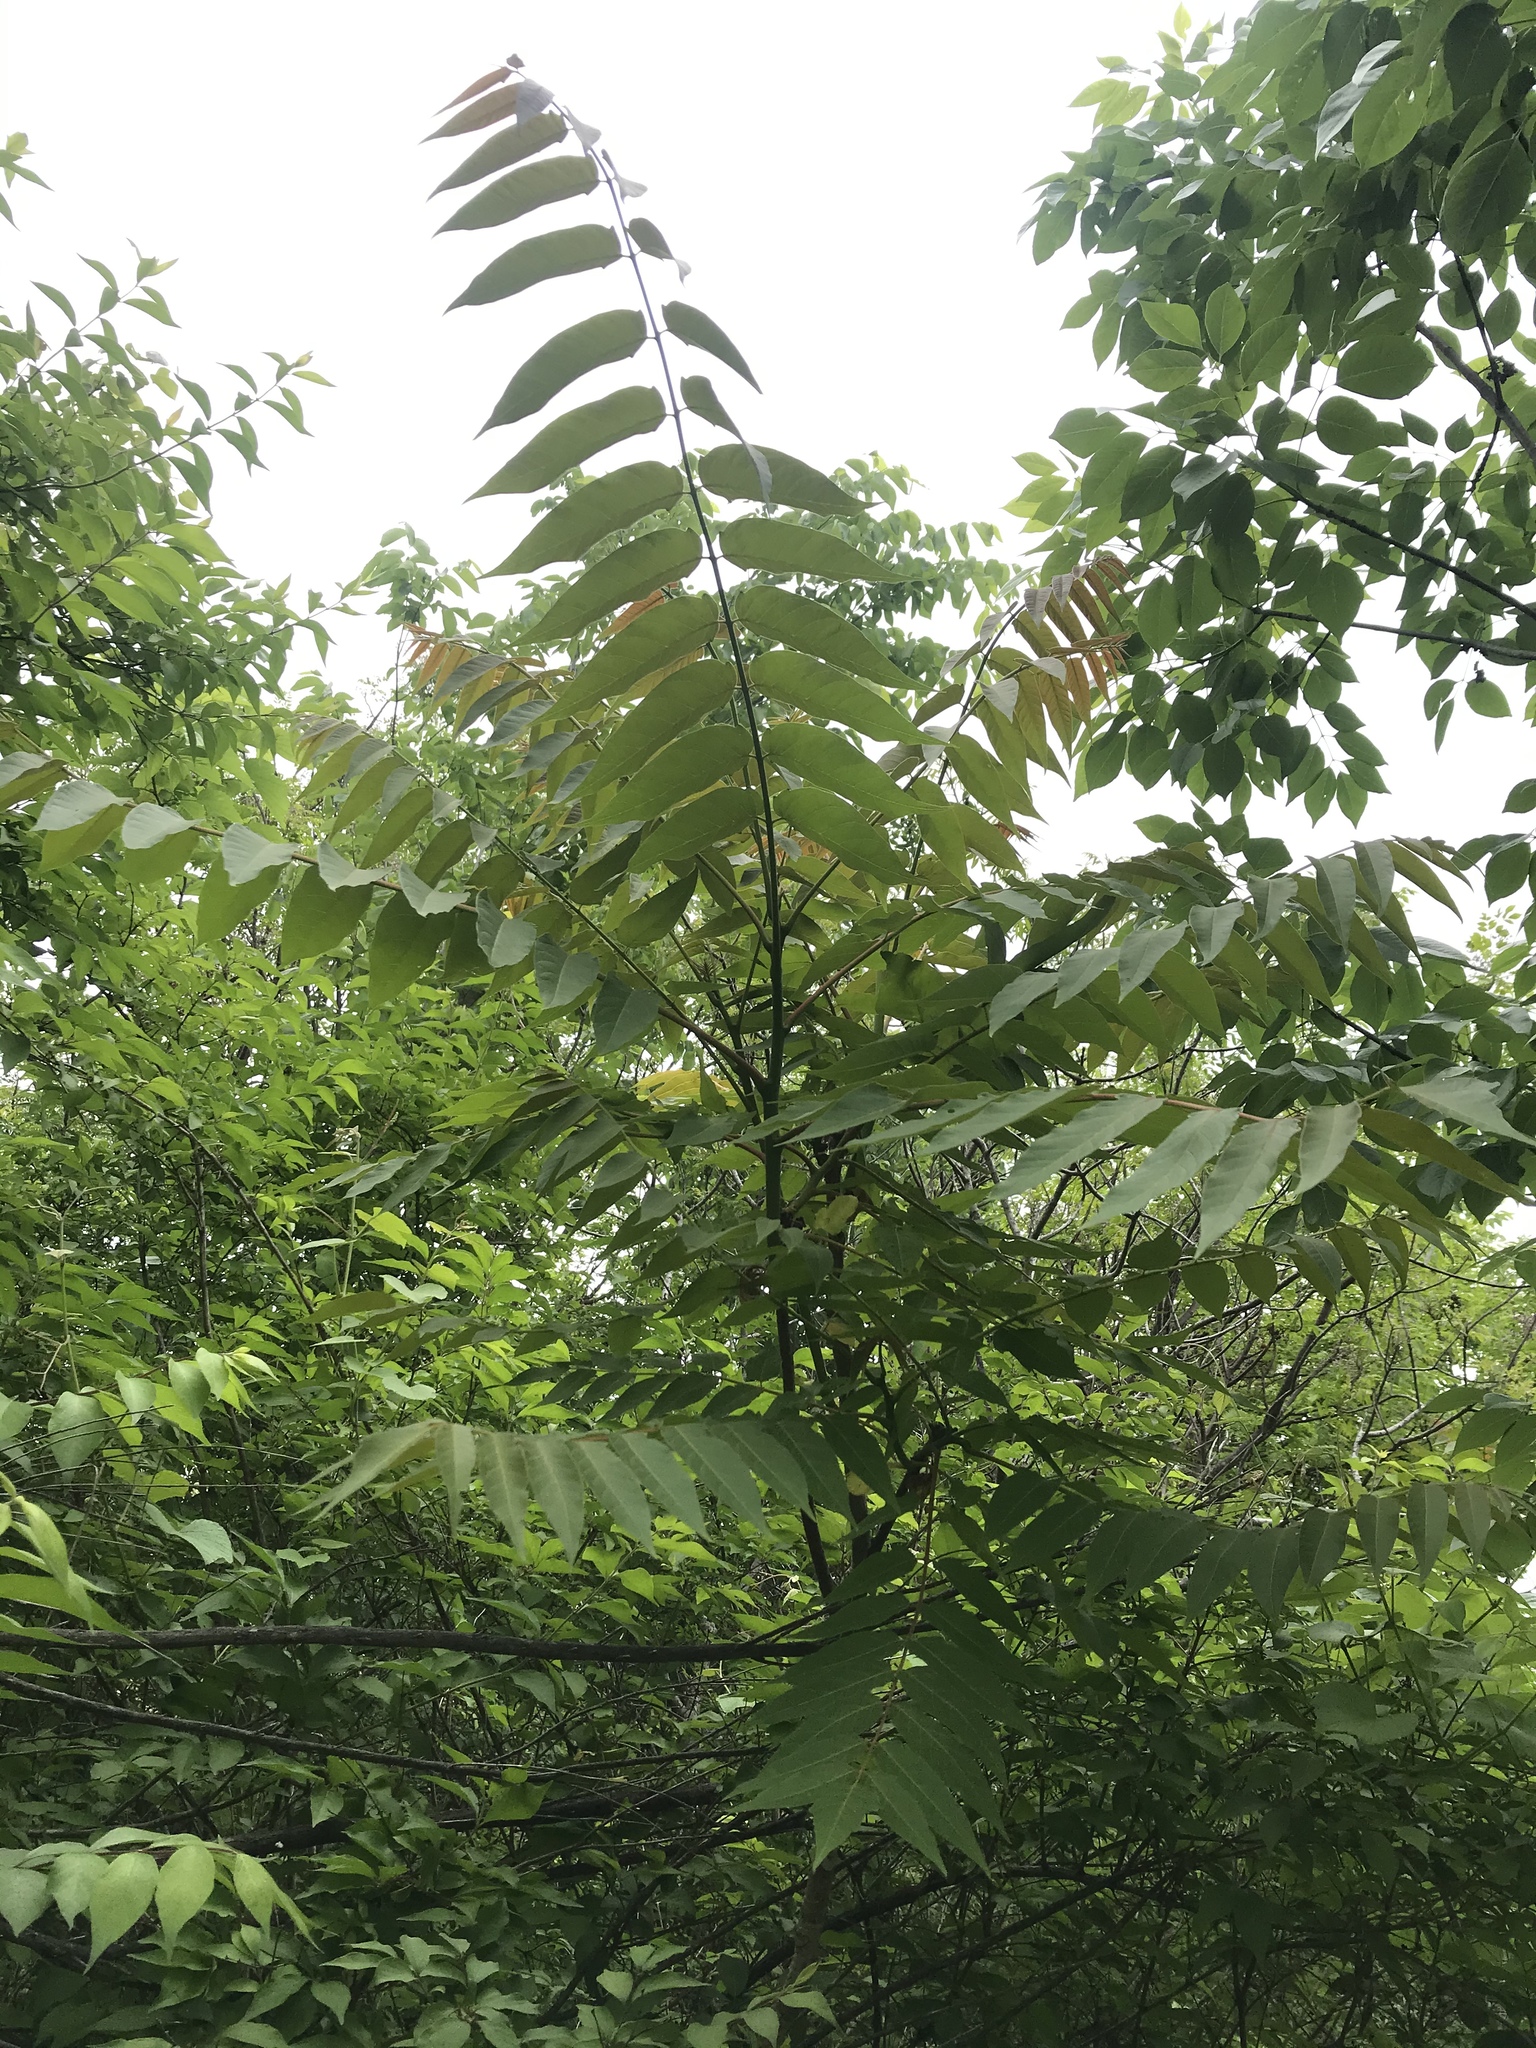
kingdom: Plantae
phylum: Tracheophyta
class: Magnoliopsida
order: Sapindales
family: Simaroubaceae
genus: Ailanthus
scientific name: Ailanthus altissima
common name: Tree-of-heaven
